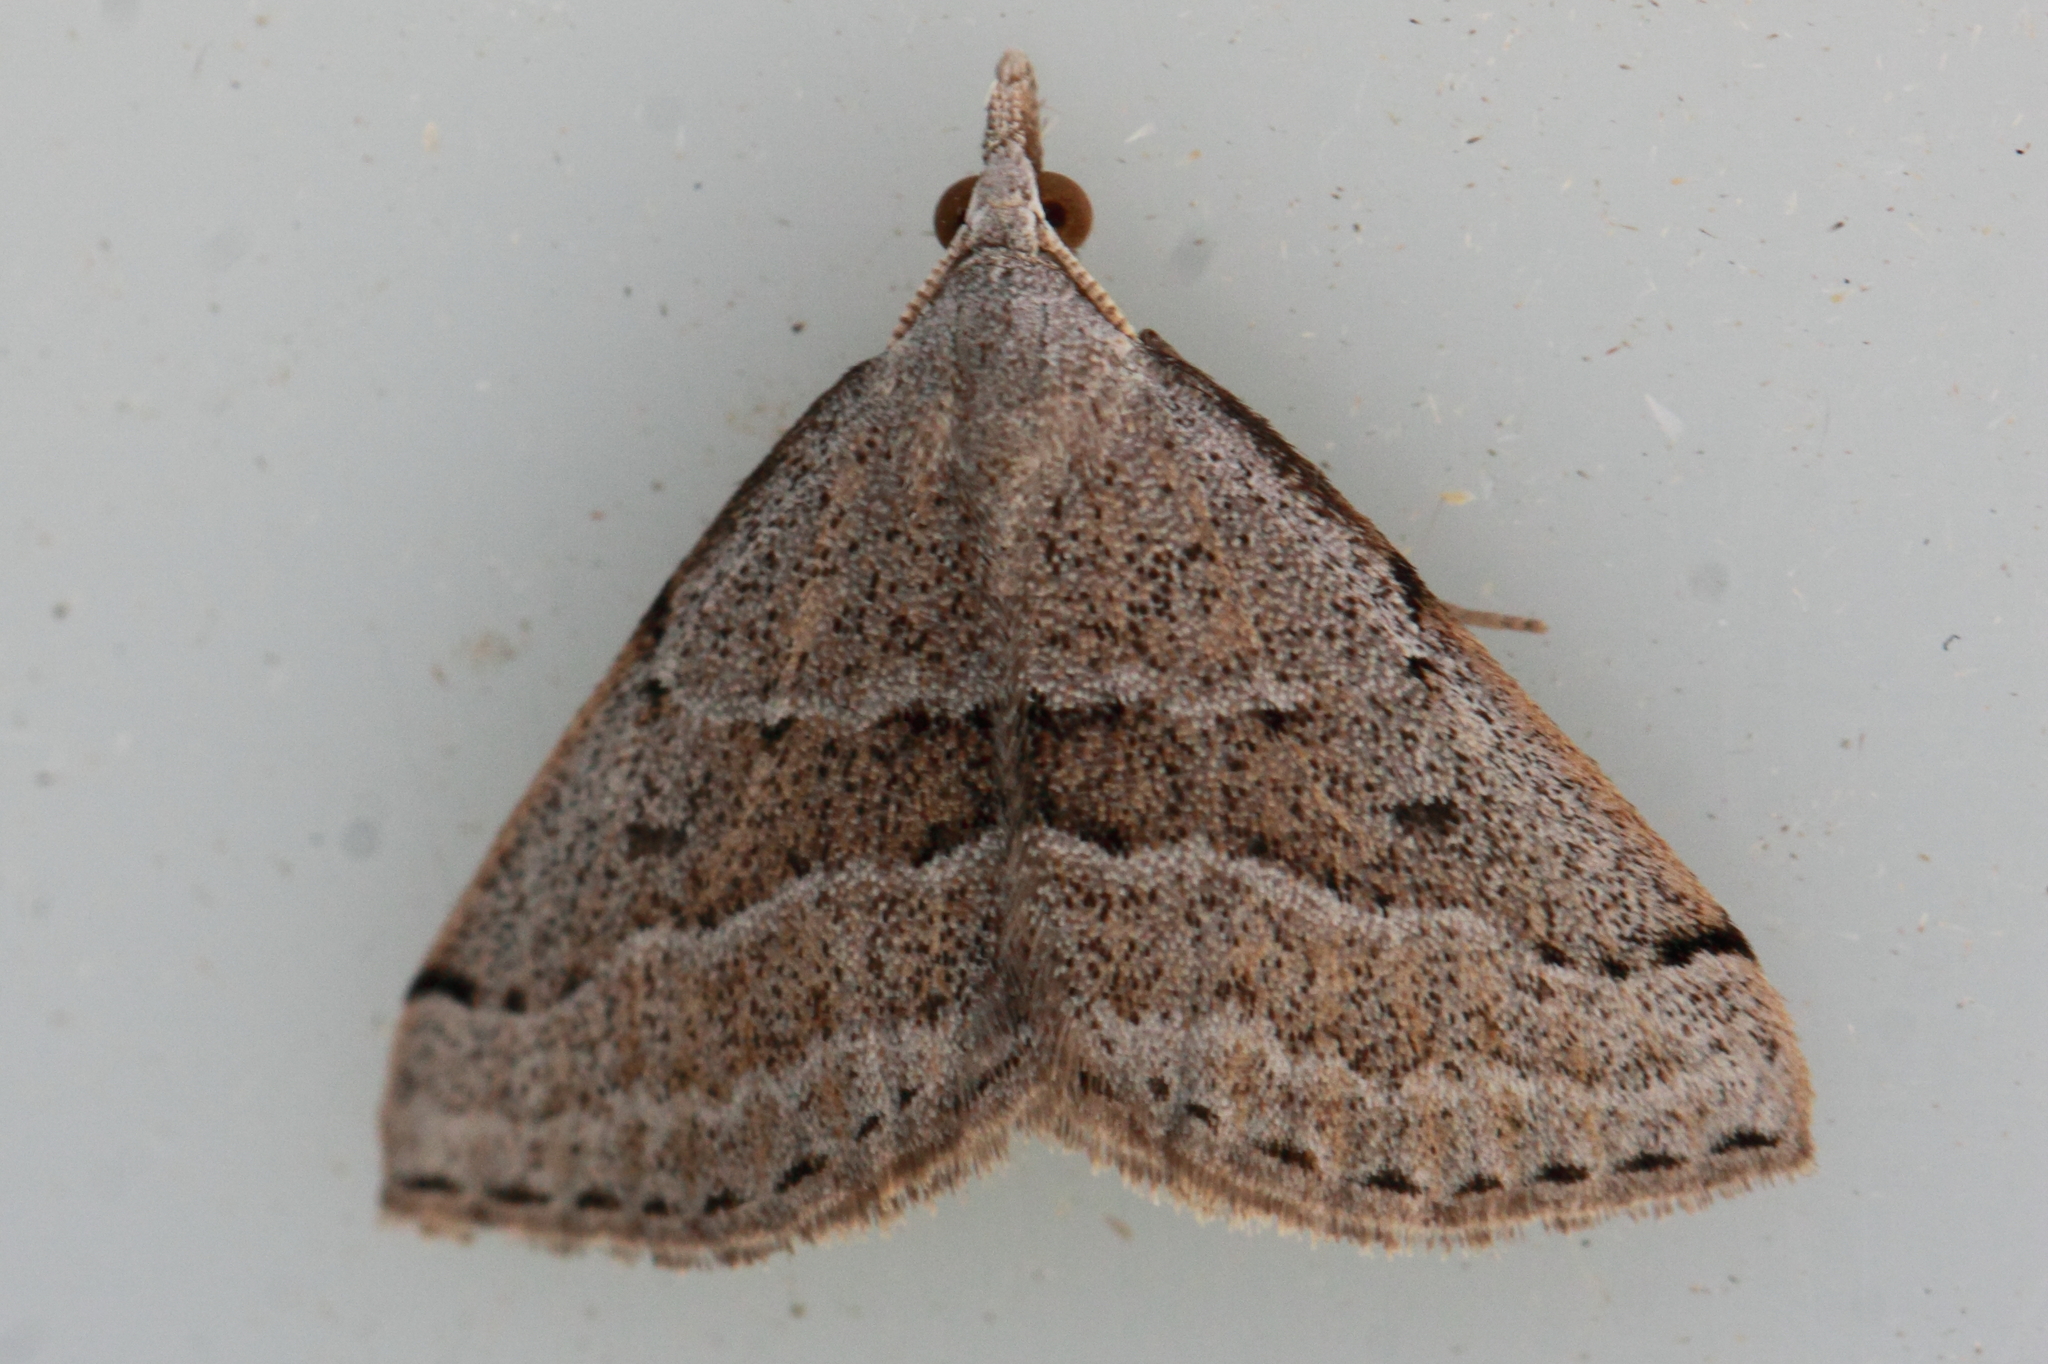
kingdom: Animalia
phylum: Arthropoda
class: Insecta
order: Lepidoptera
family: Geometridae
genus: Dichromodes
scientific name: Dichromodes limosa
